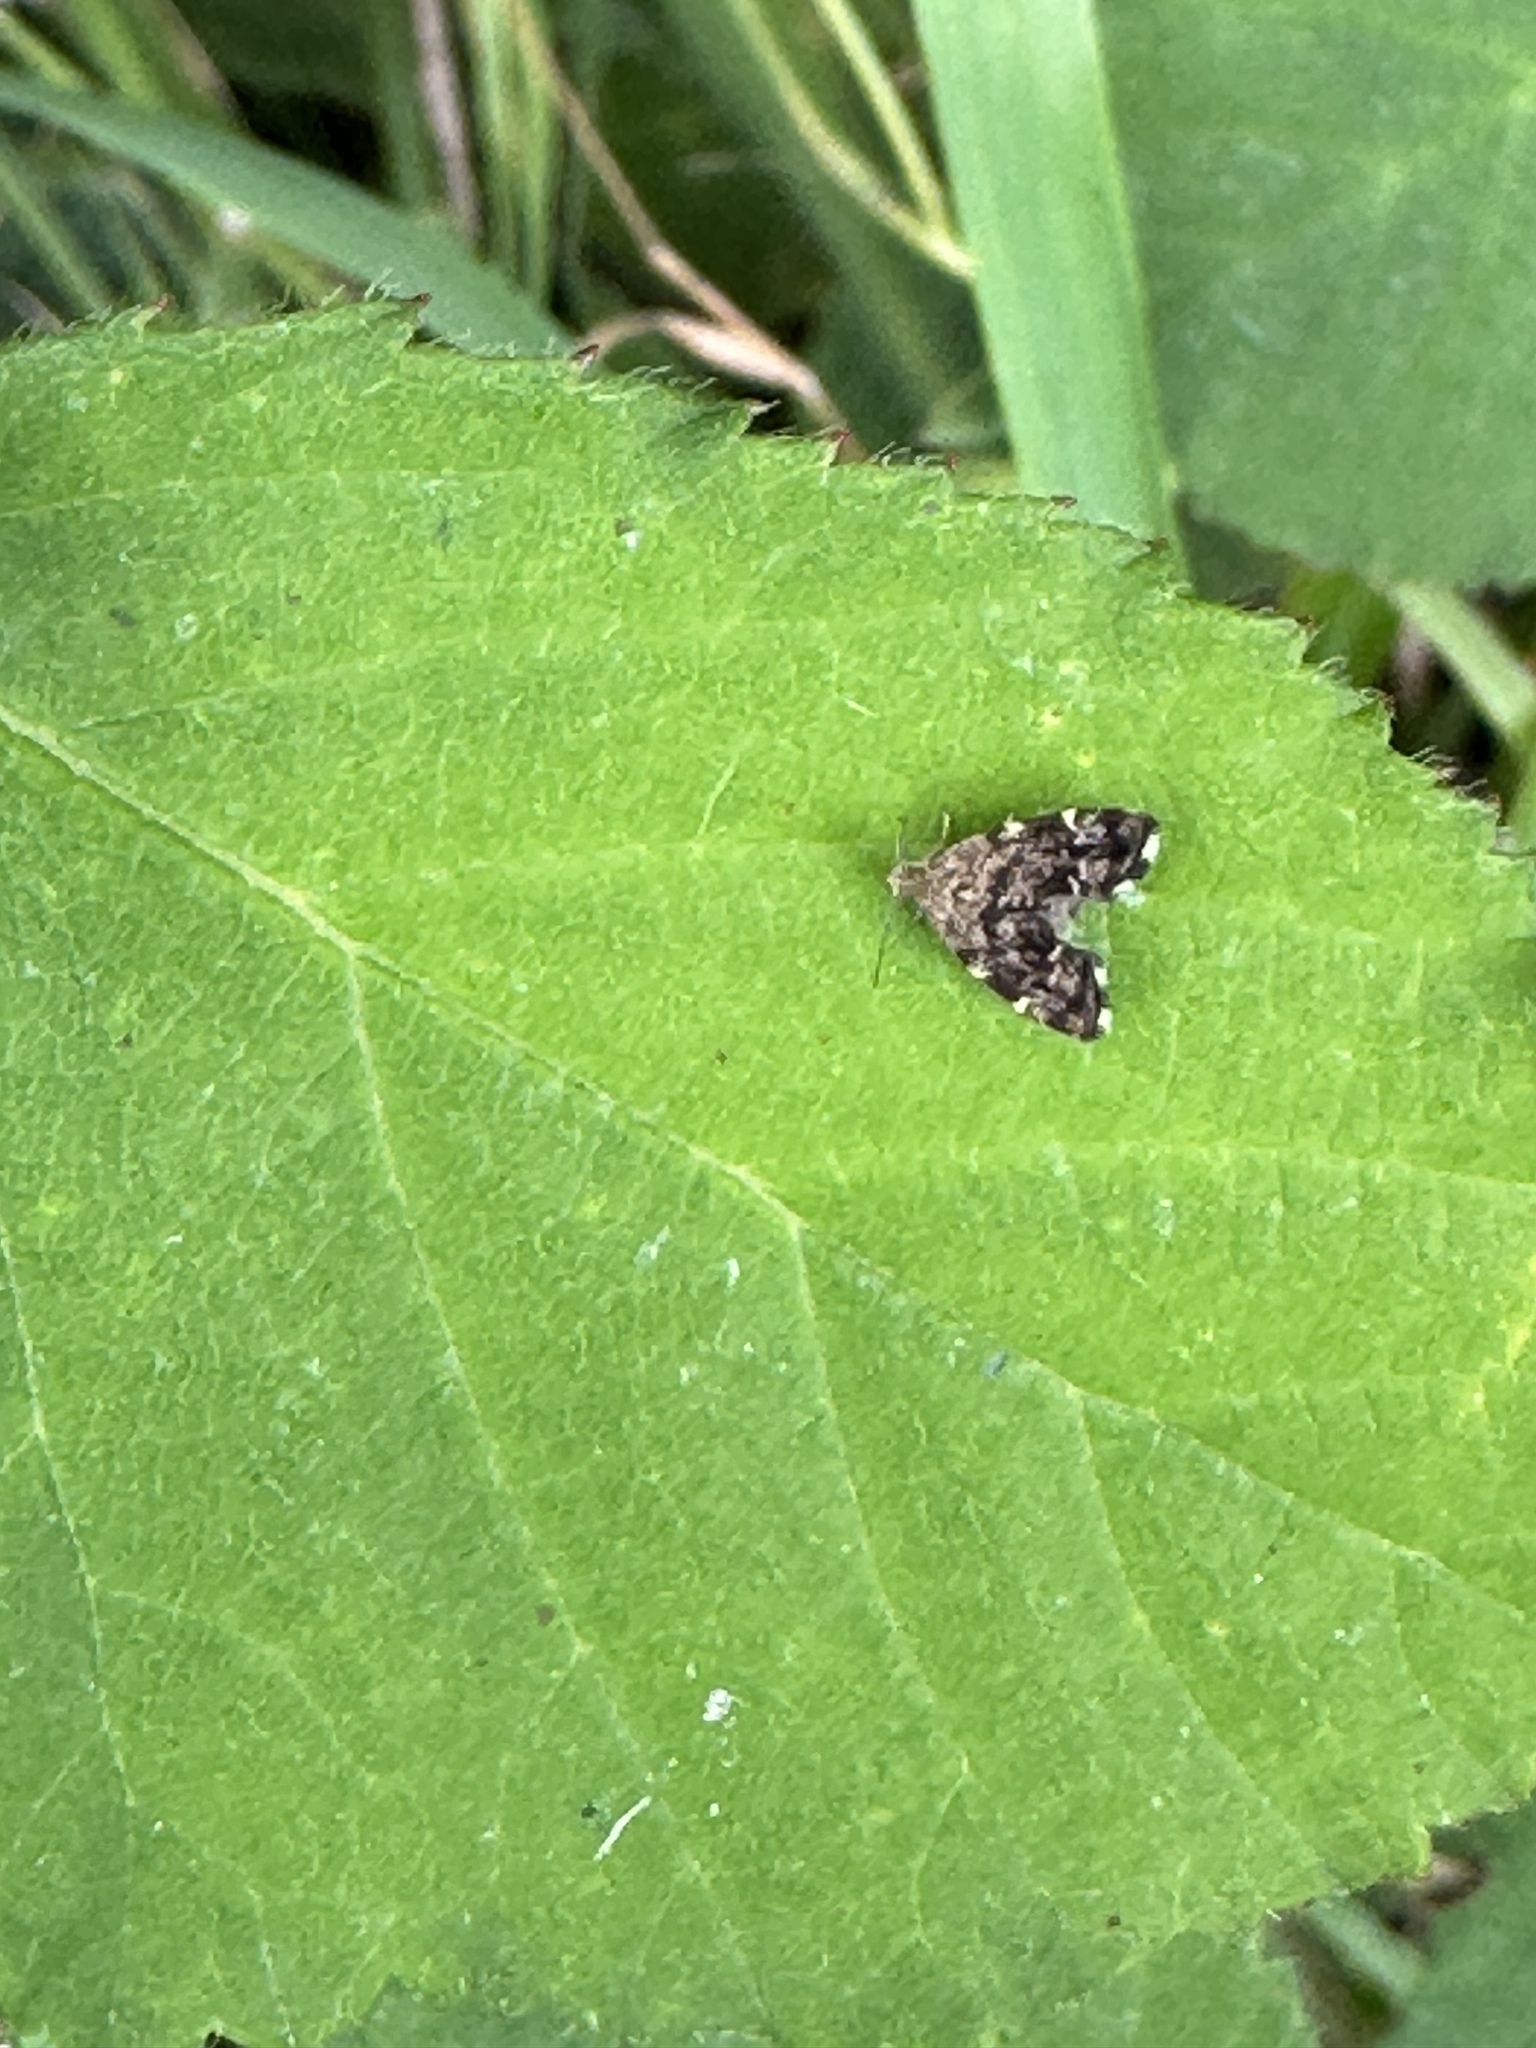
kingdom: Animalia
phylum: Arthropoda
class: Insecta
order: Lepidoptera
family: Choreutidae
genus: Anthophila
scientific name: Anthophila fabriciana
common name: Nettle-tap
